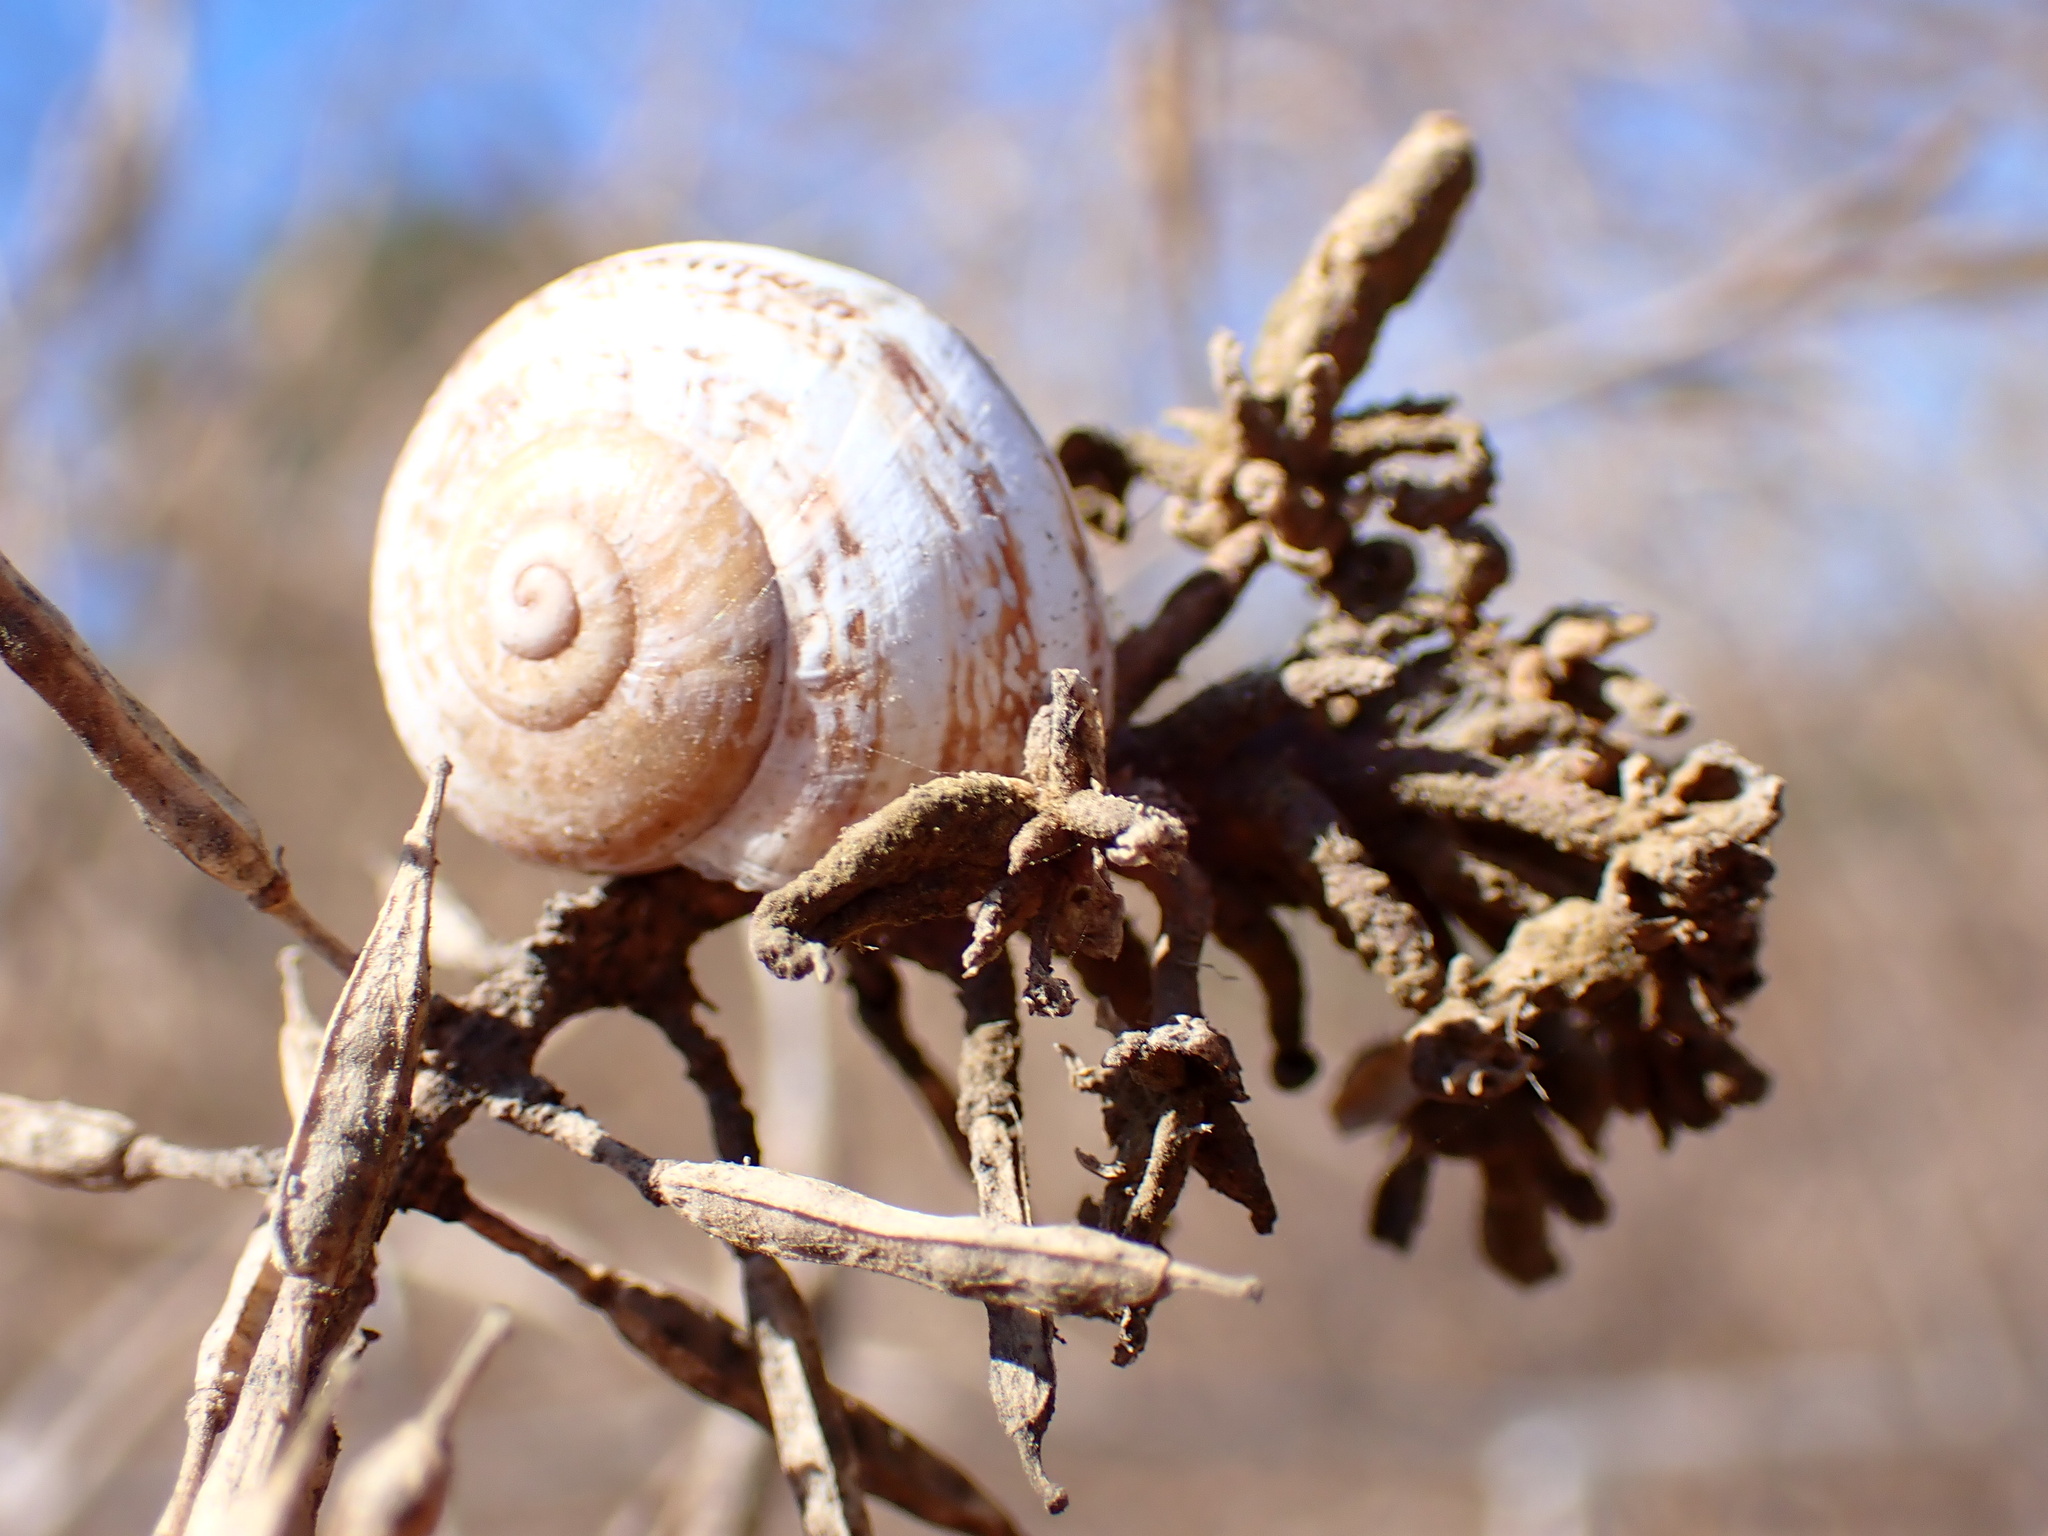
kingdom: Animalia
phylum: Mollusca
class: Gastropoda
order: Stylommatophora
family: Helicidae
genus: Otala
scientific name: Otala lactea
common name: Milk snail
